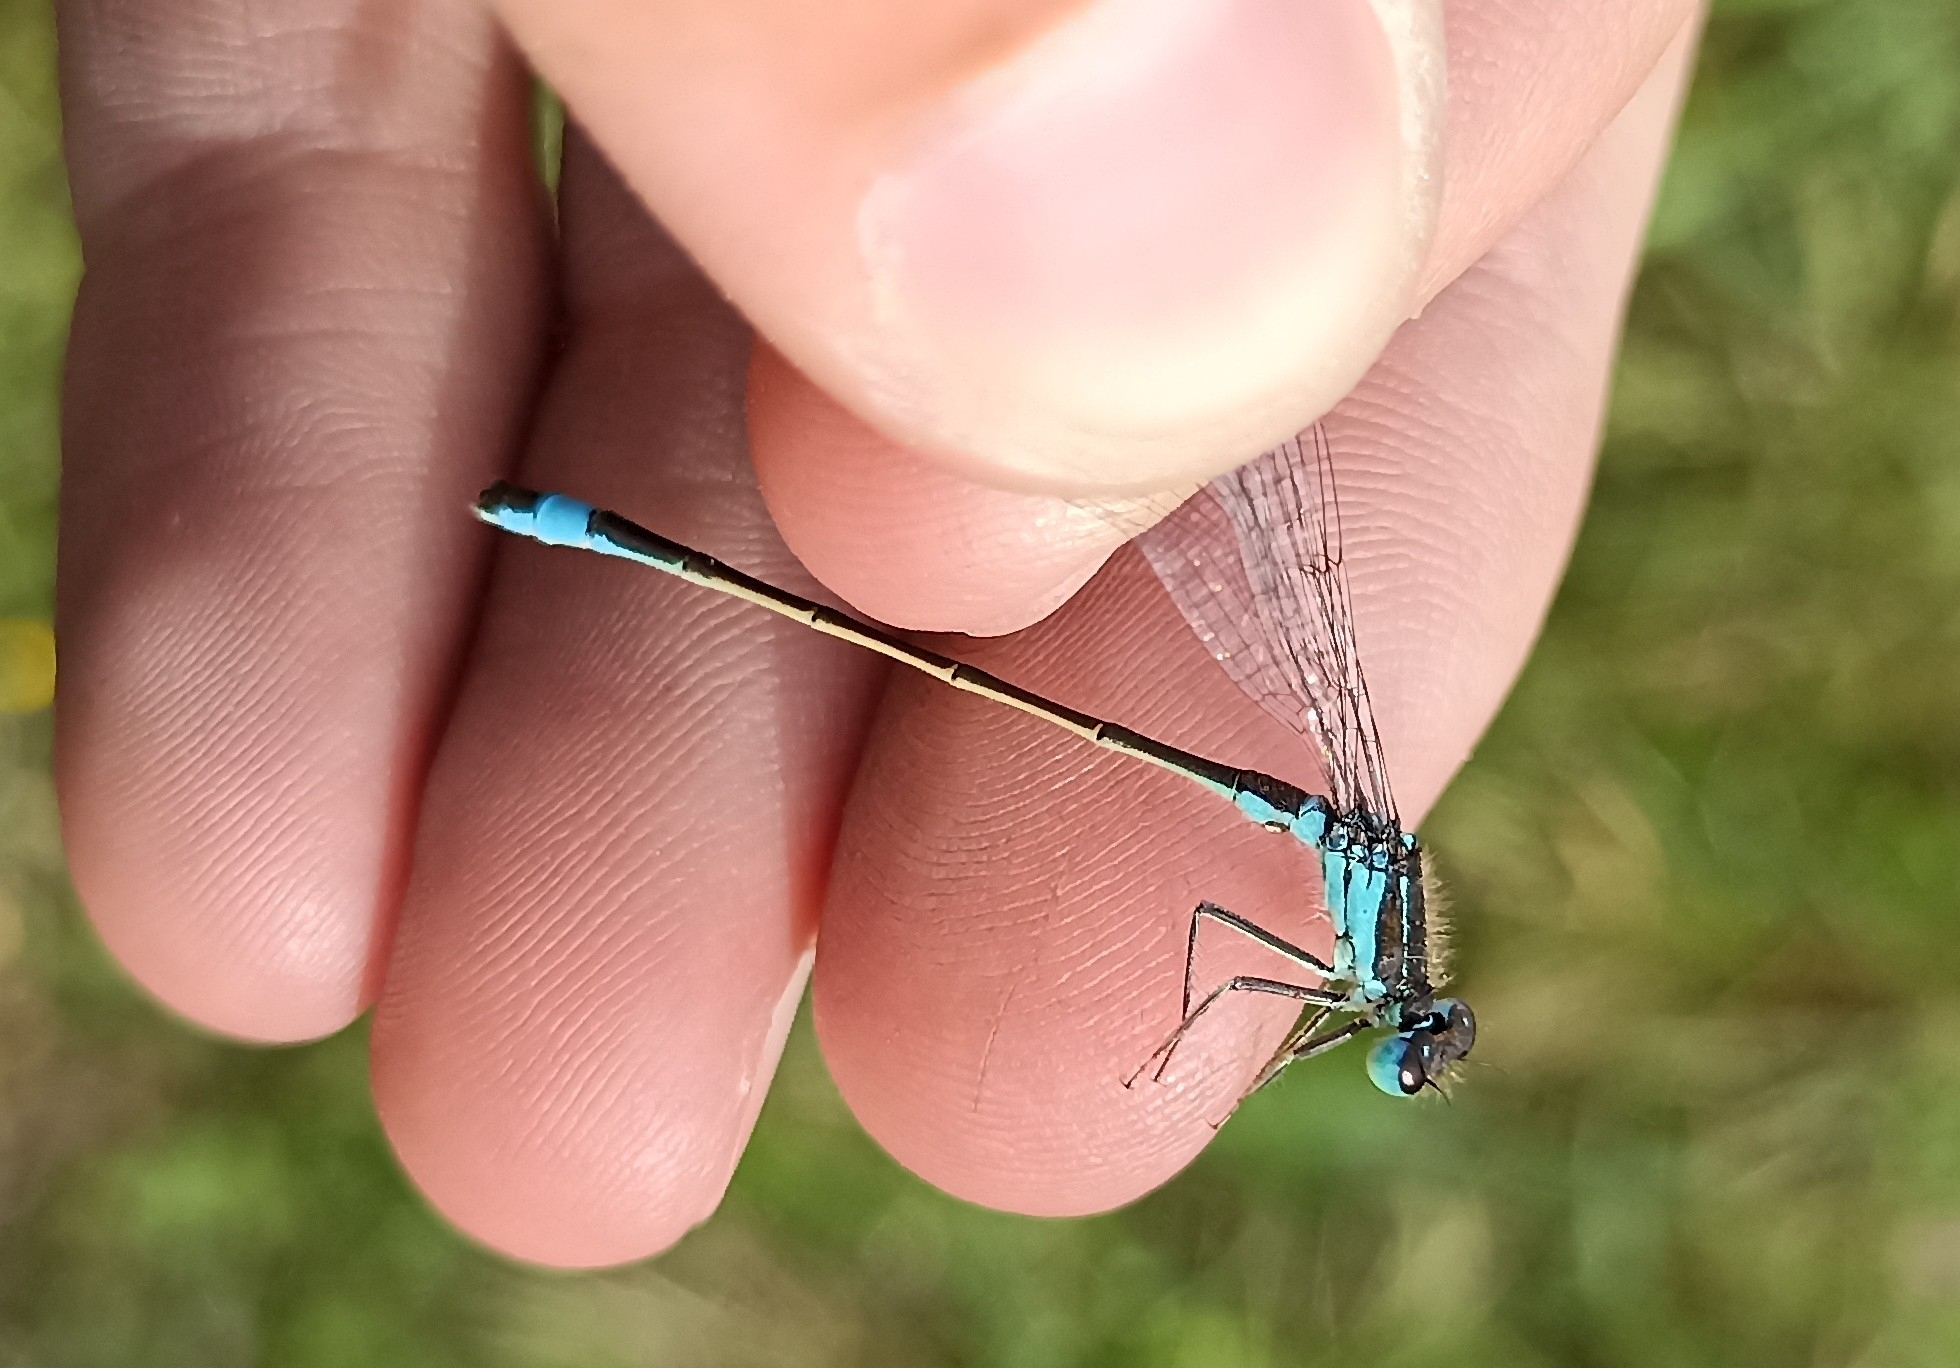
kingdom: Animalia
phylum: Arthropoda
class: Insecta
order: Odonata
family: Coenagrionidae
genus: Ischnura
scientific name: Ischnura elegans
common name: Blue-tailed damselfly
